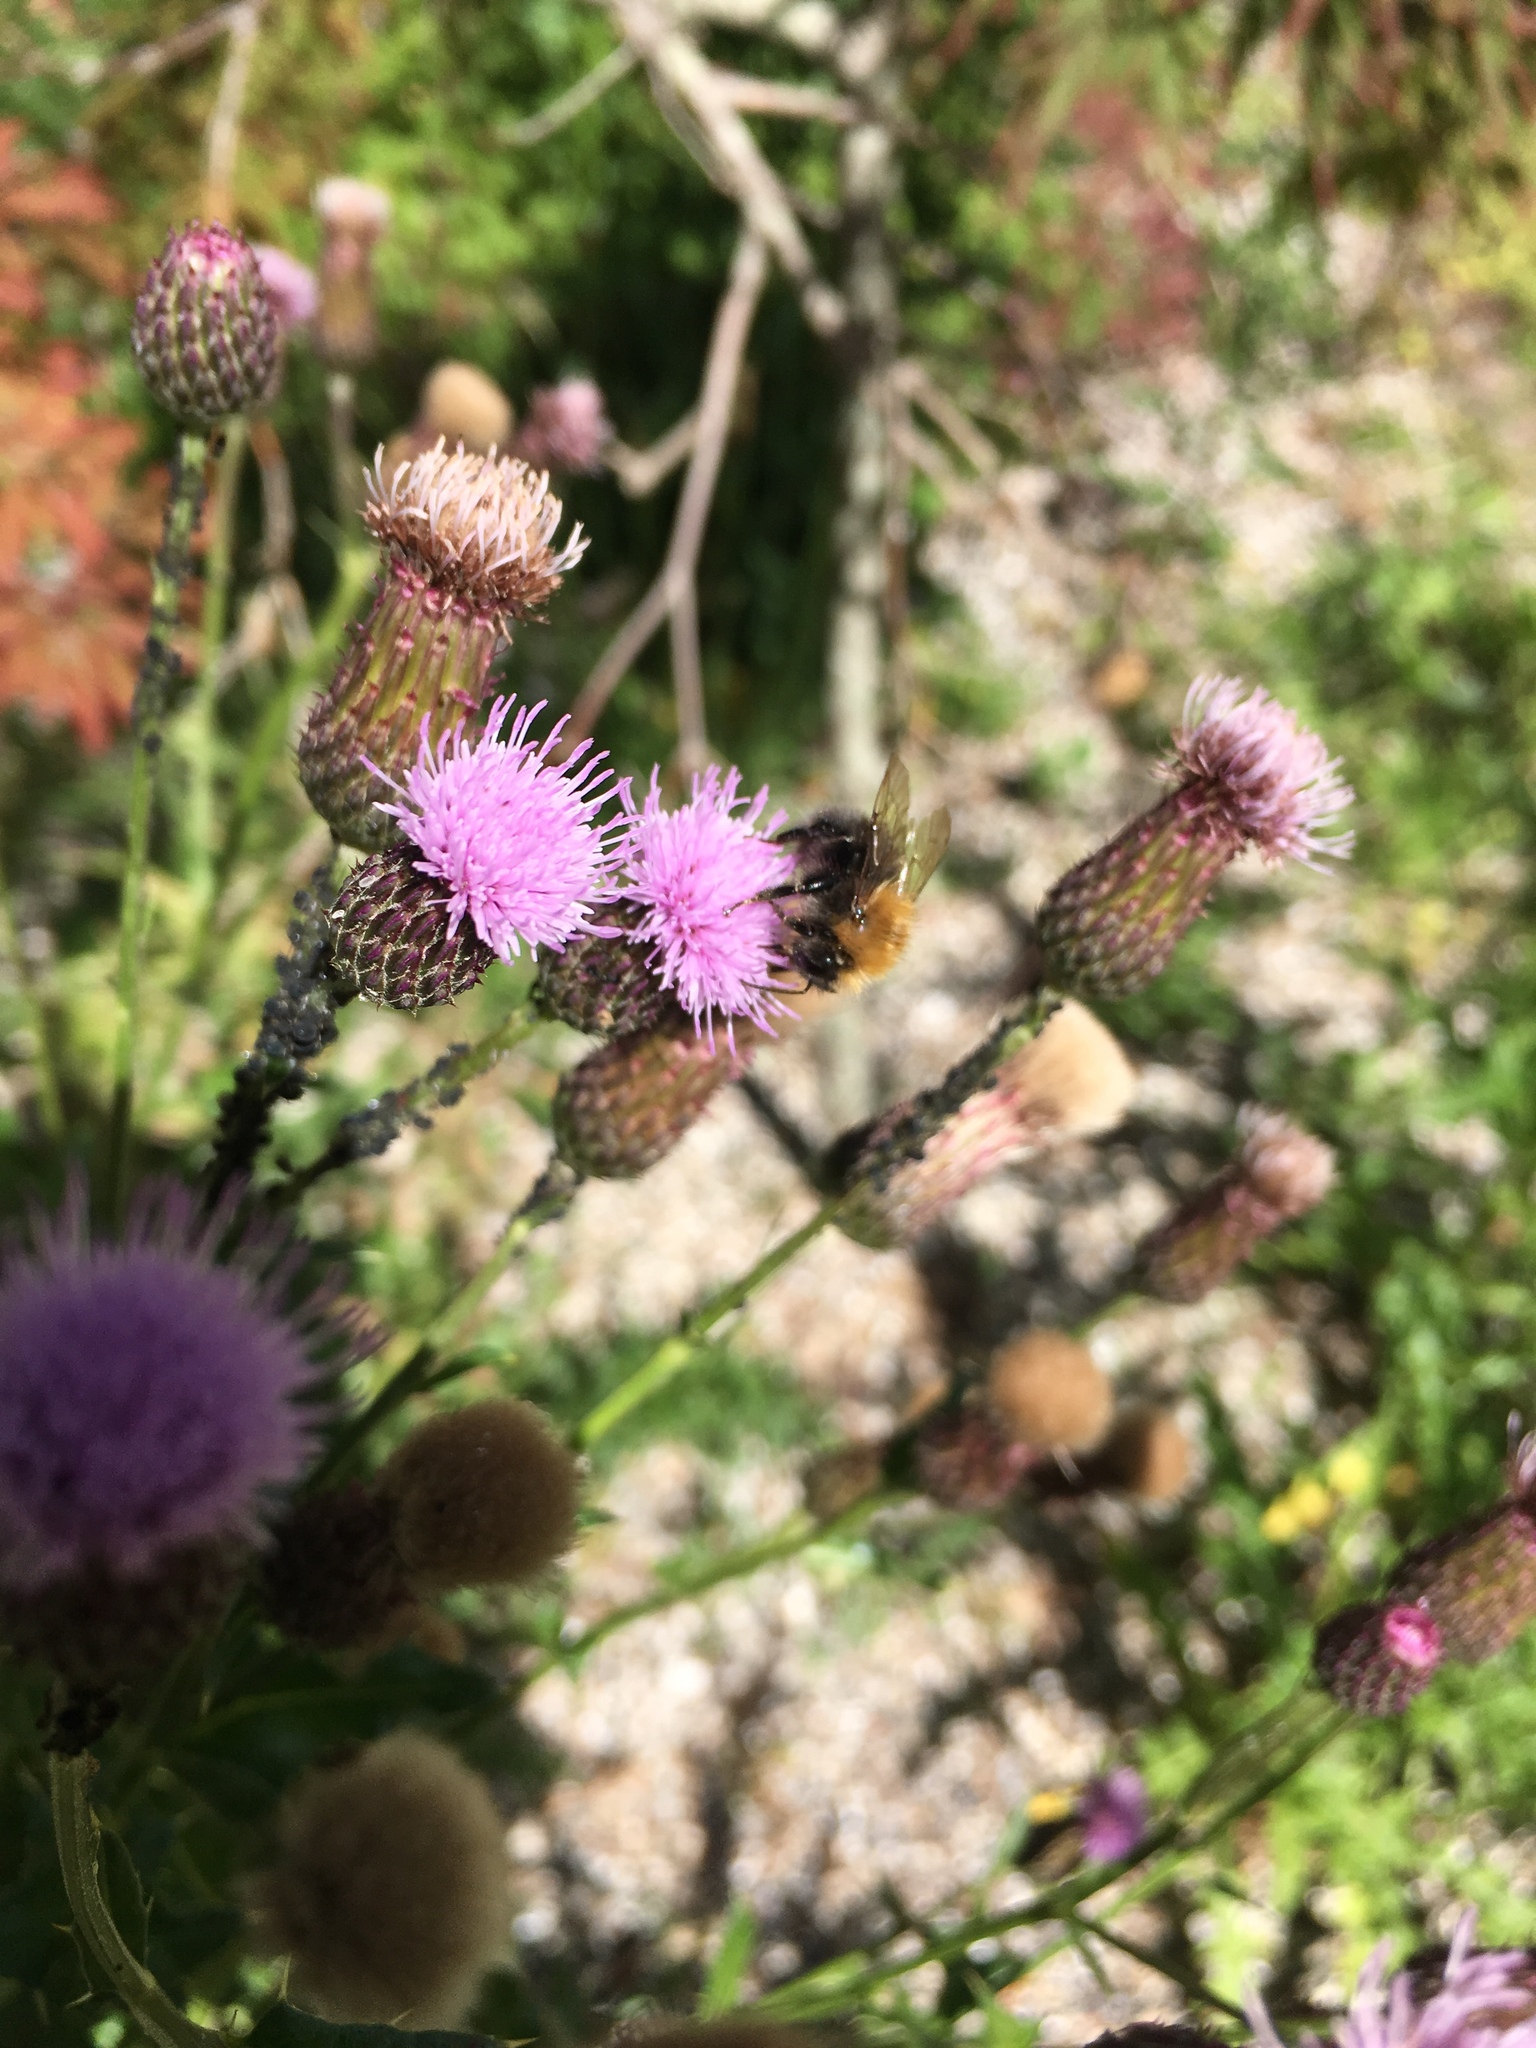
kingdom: Animalia
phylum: Arthropoda
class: Insecta
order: Hymenoptera
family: Apidae
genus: Bombus
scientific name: Bombus hypnorum
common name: New garden bumblebee
